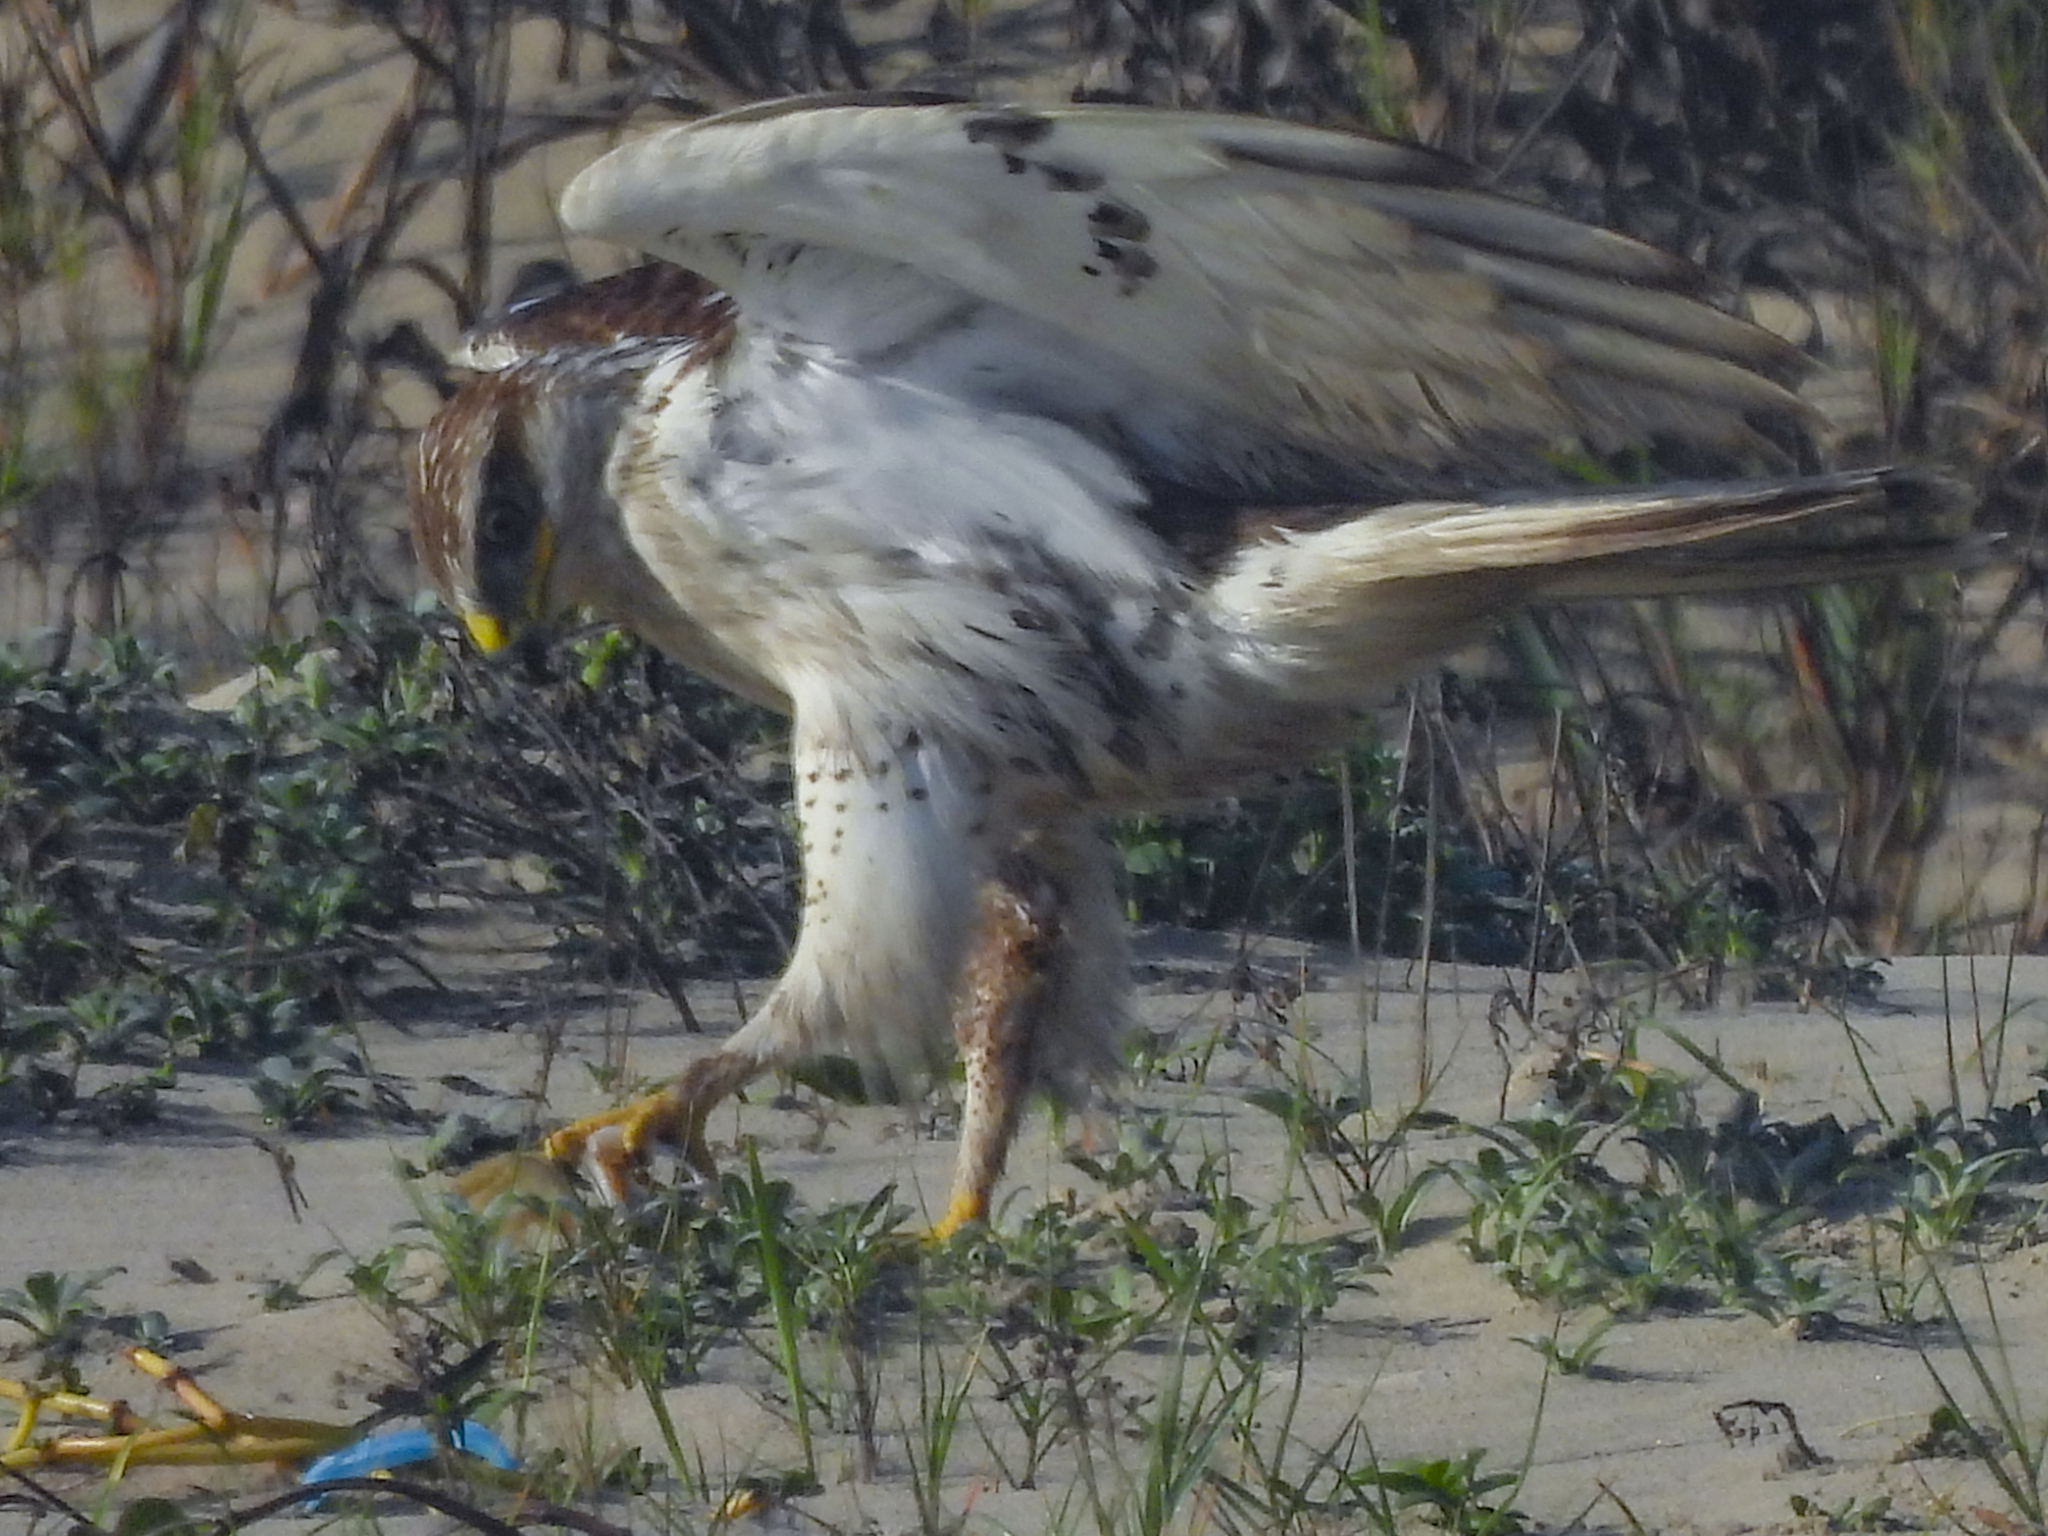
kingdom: Animalia
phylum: Chordata
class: Aves
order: Accipitriformes
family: Accipitridae
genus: Buteo
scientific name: Buteo regalis
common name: Ferruginous hawk
